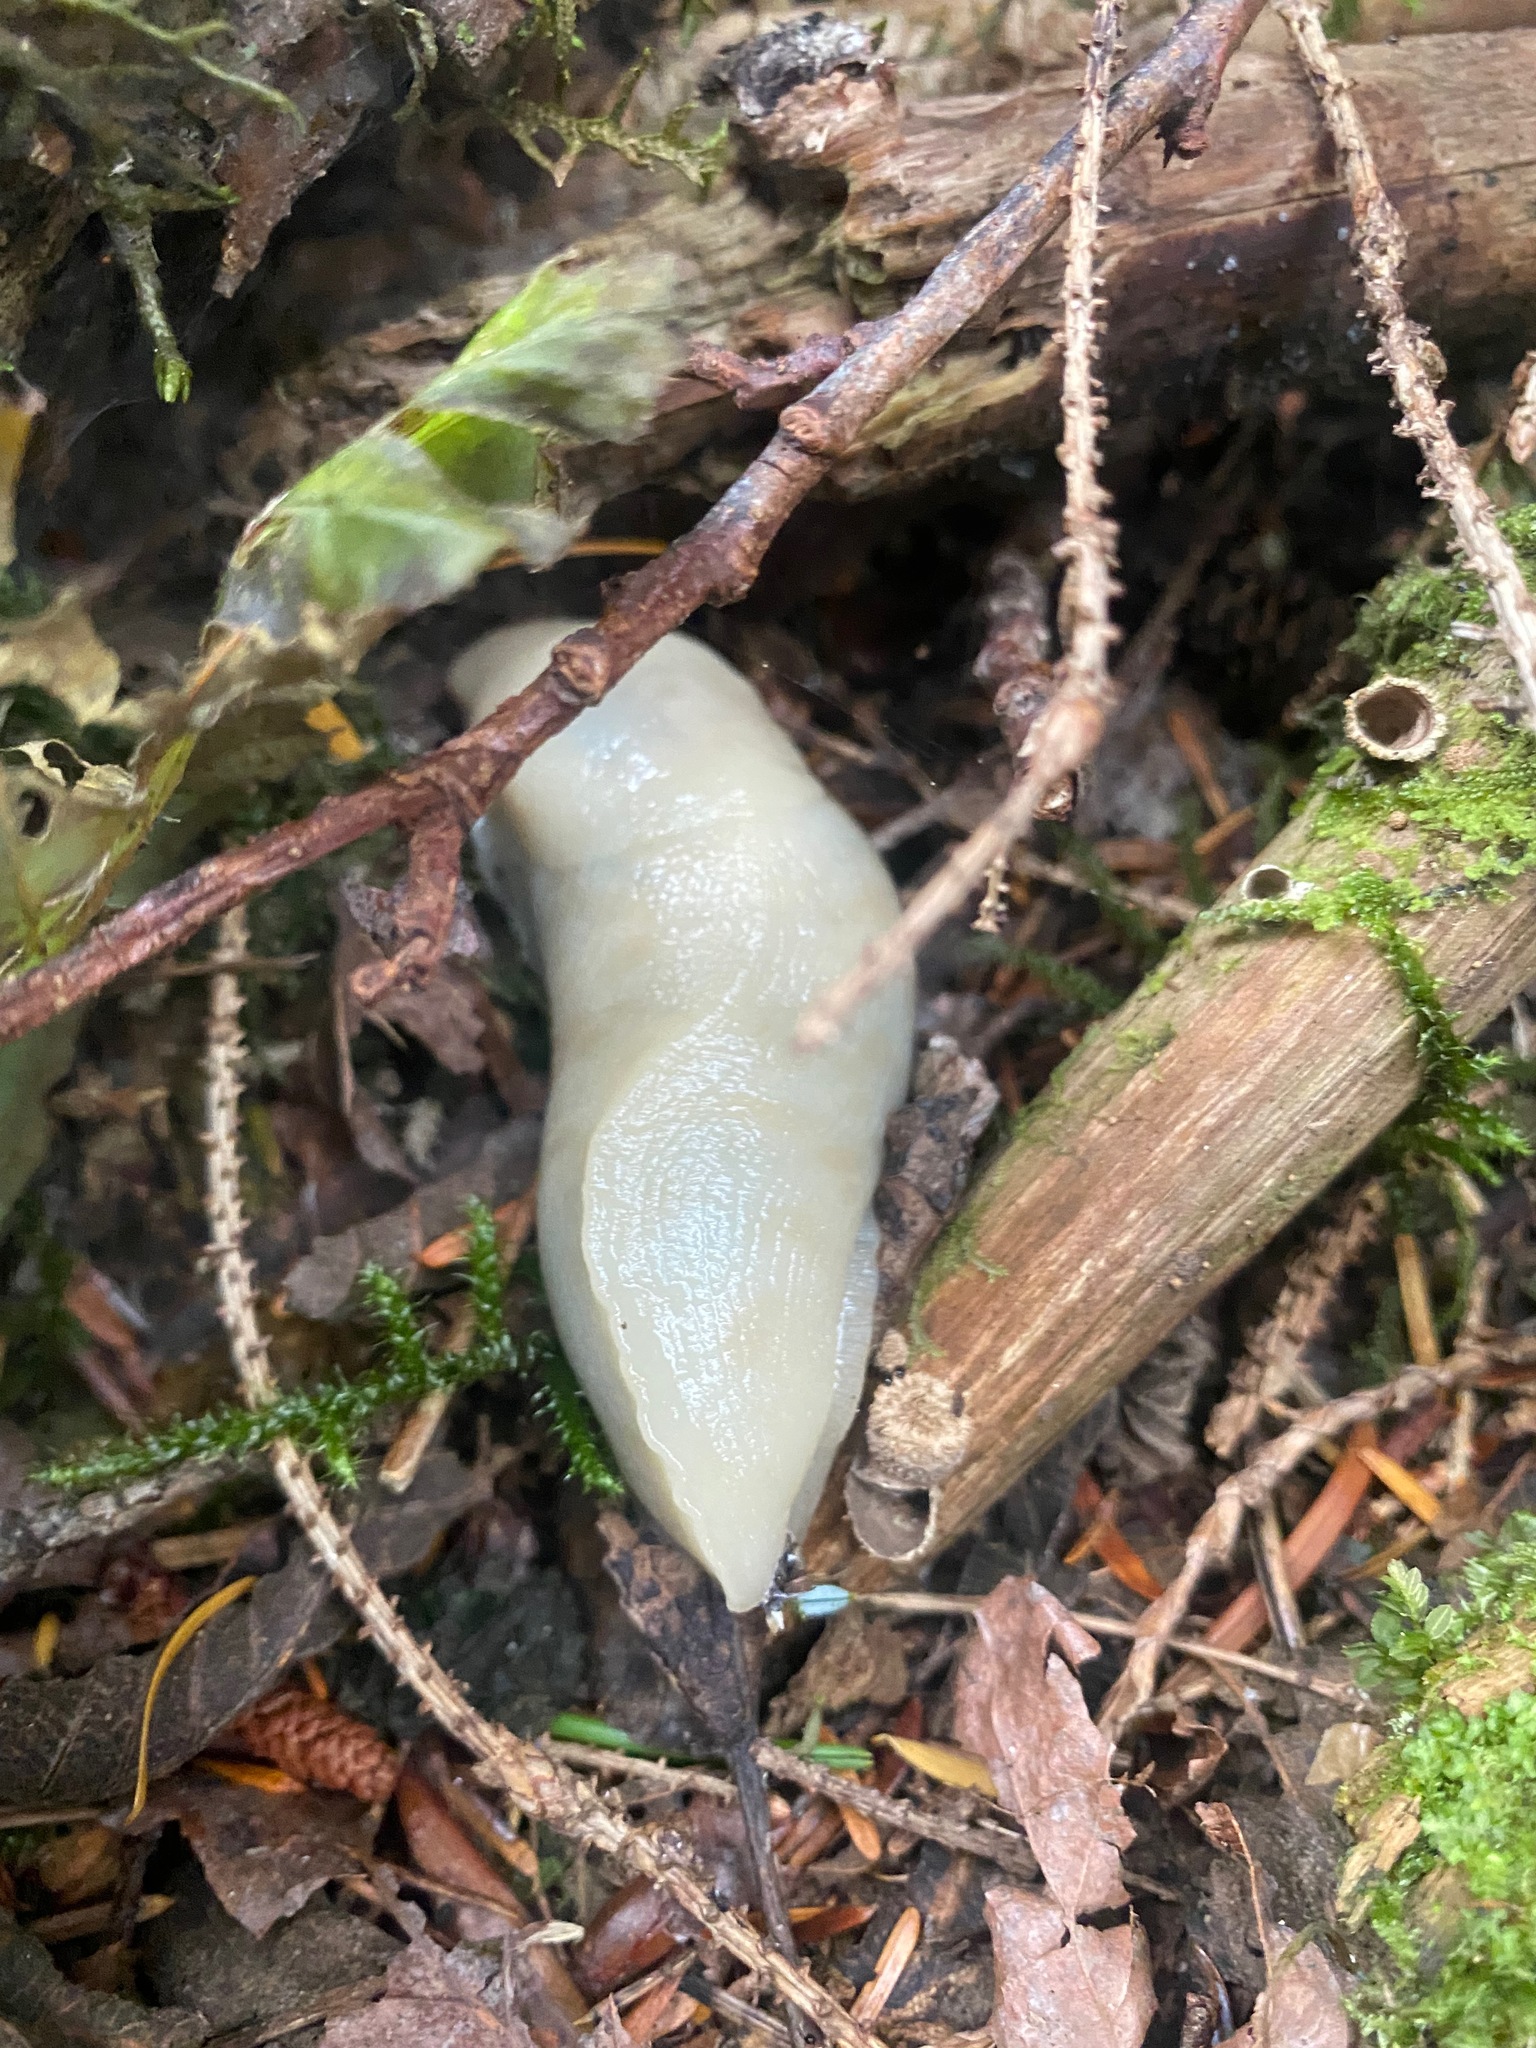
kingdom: Animalia
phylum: Mollusca
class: Gastropoda
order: Stylommatophora
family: Ariolimacidae
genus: Ariolimax
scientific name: Ariolimax columbianus
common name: Pacific banana slug
